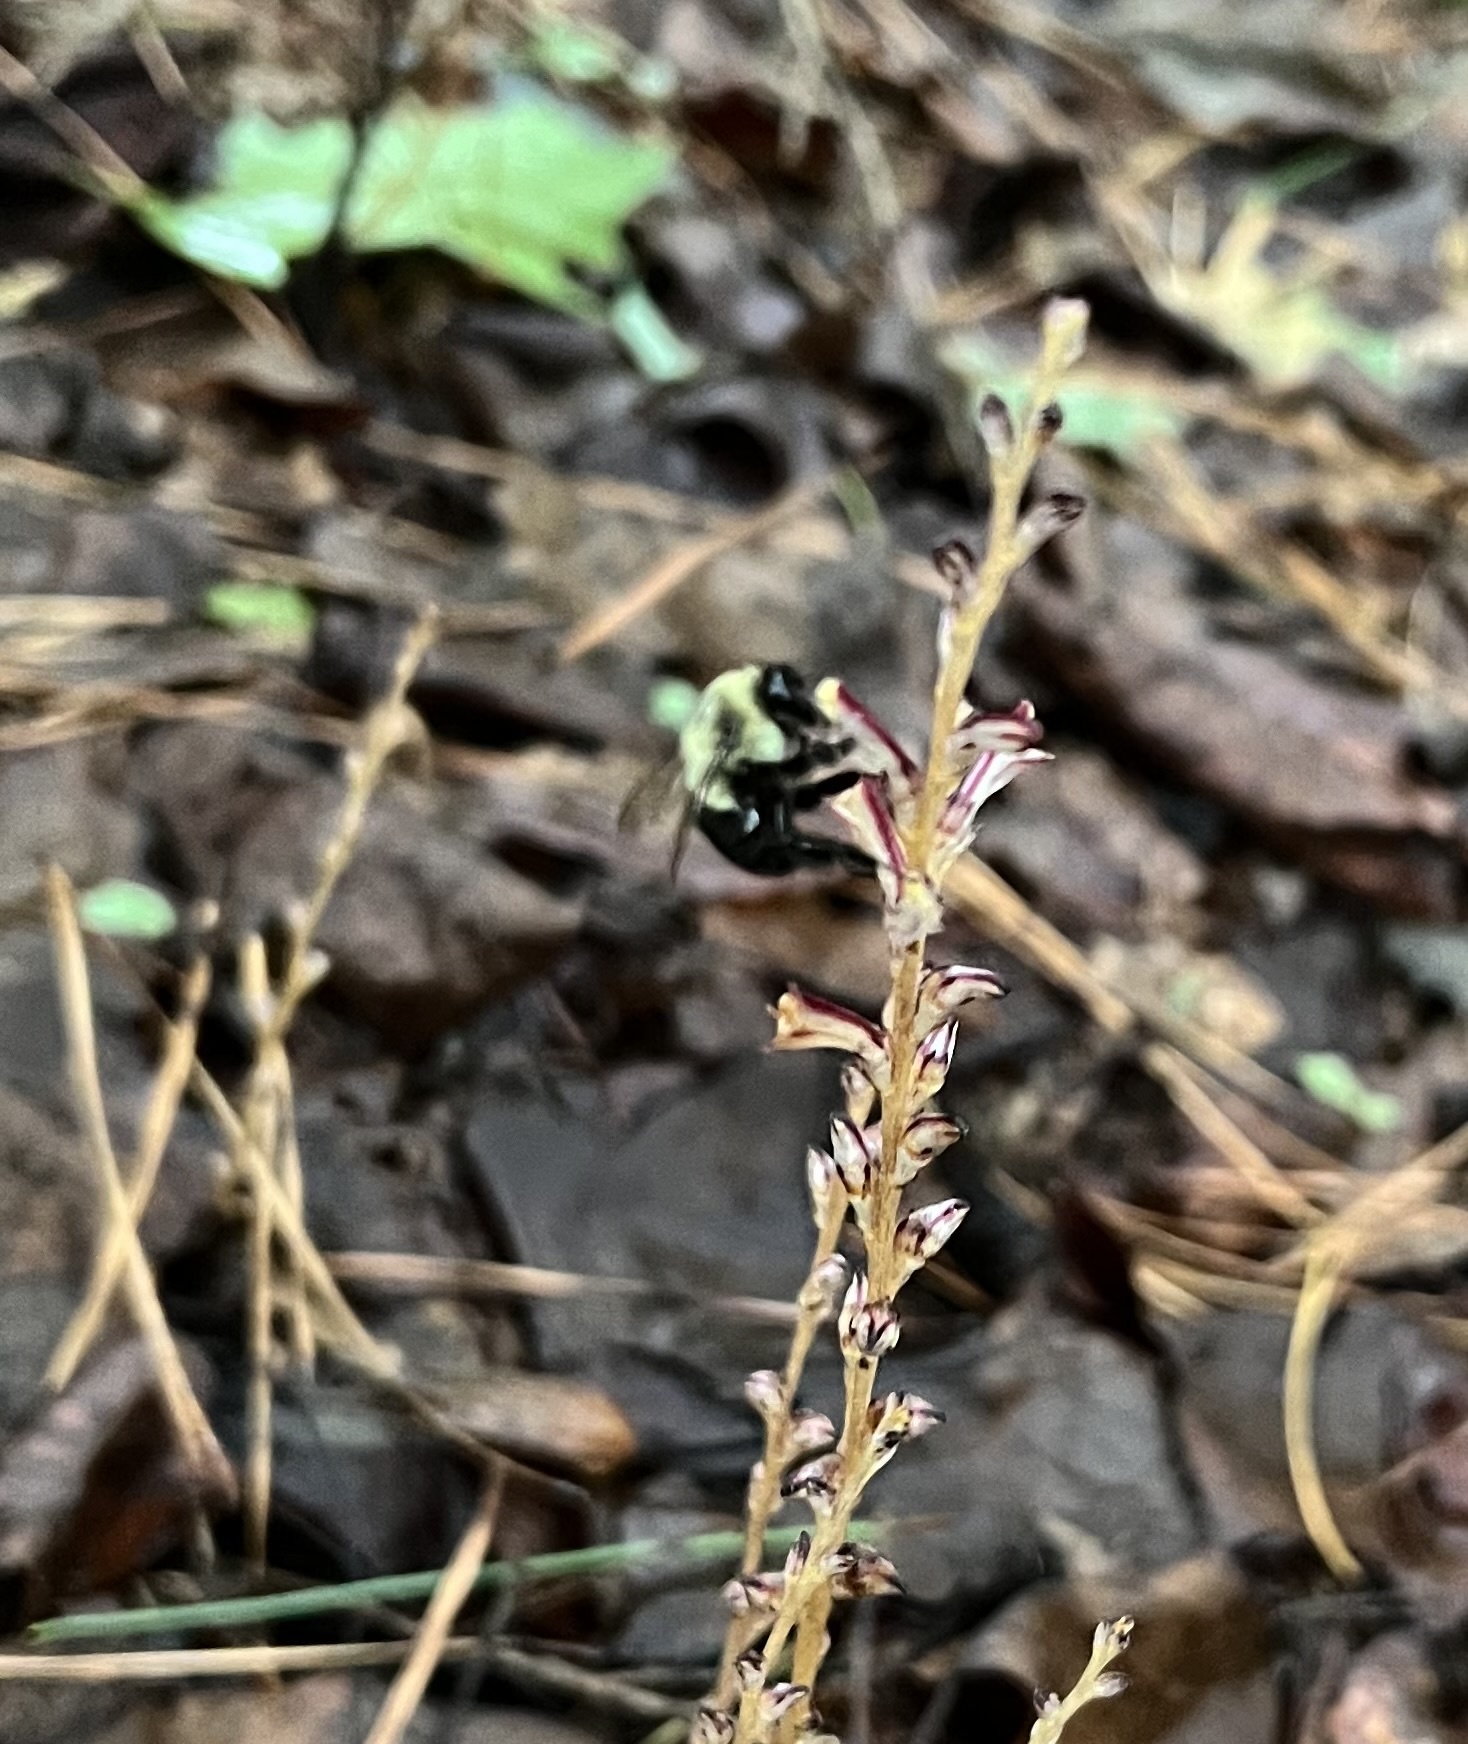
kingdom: Animalia
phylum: Arthropoda
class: Insecta
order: Hymenoptera
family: Apidae
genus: Bombus
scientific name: Bombus impatiens
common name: Common eastern bumble bee
